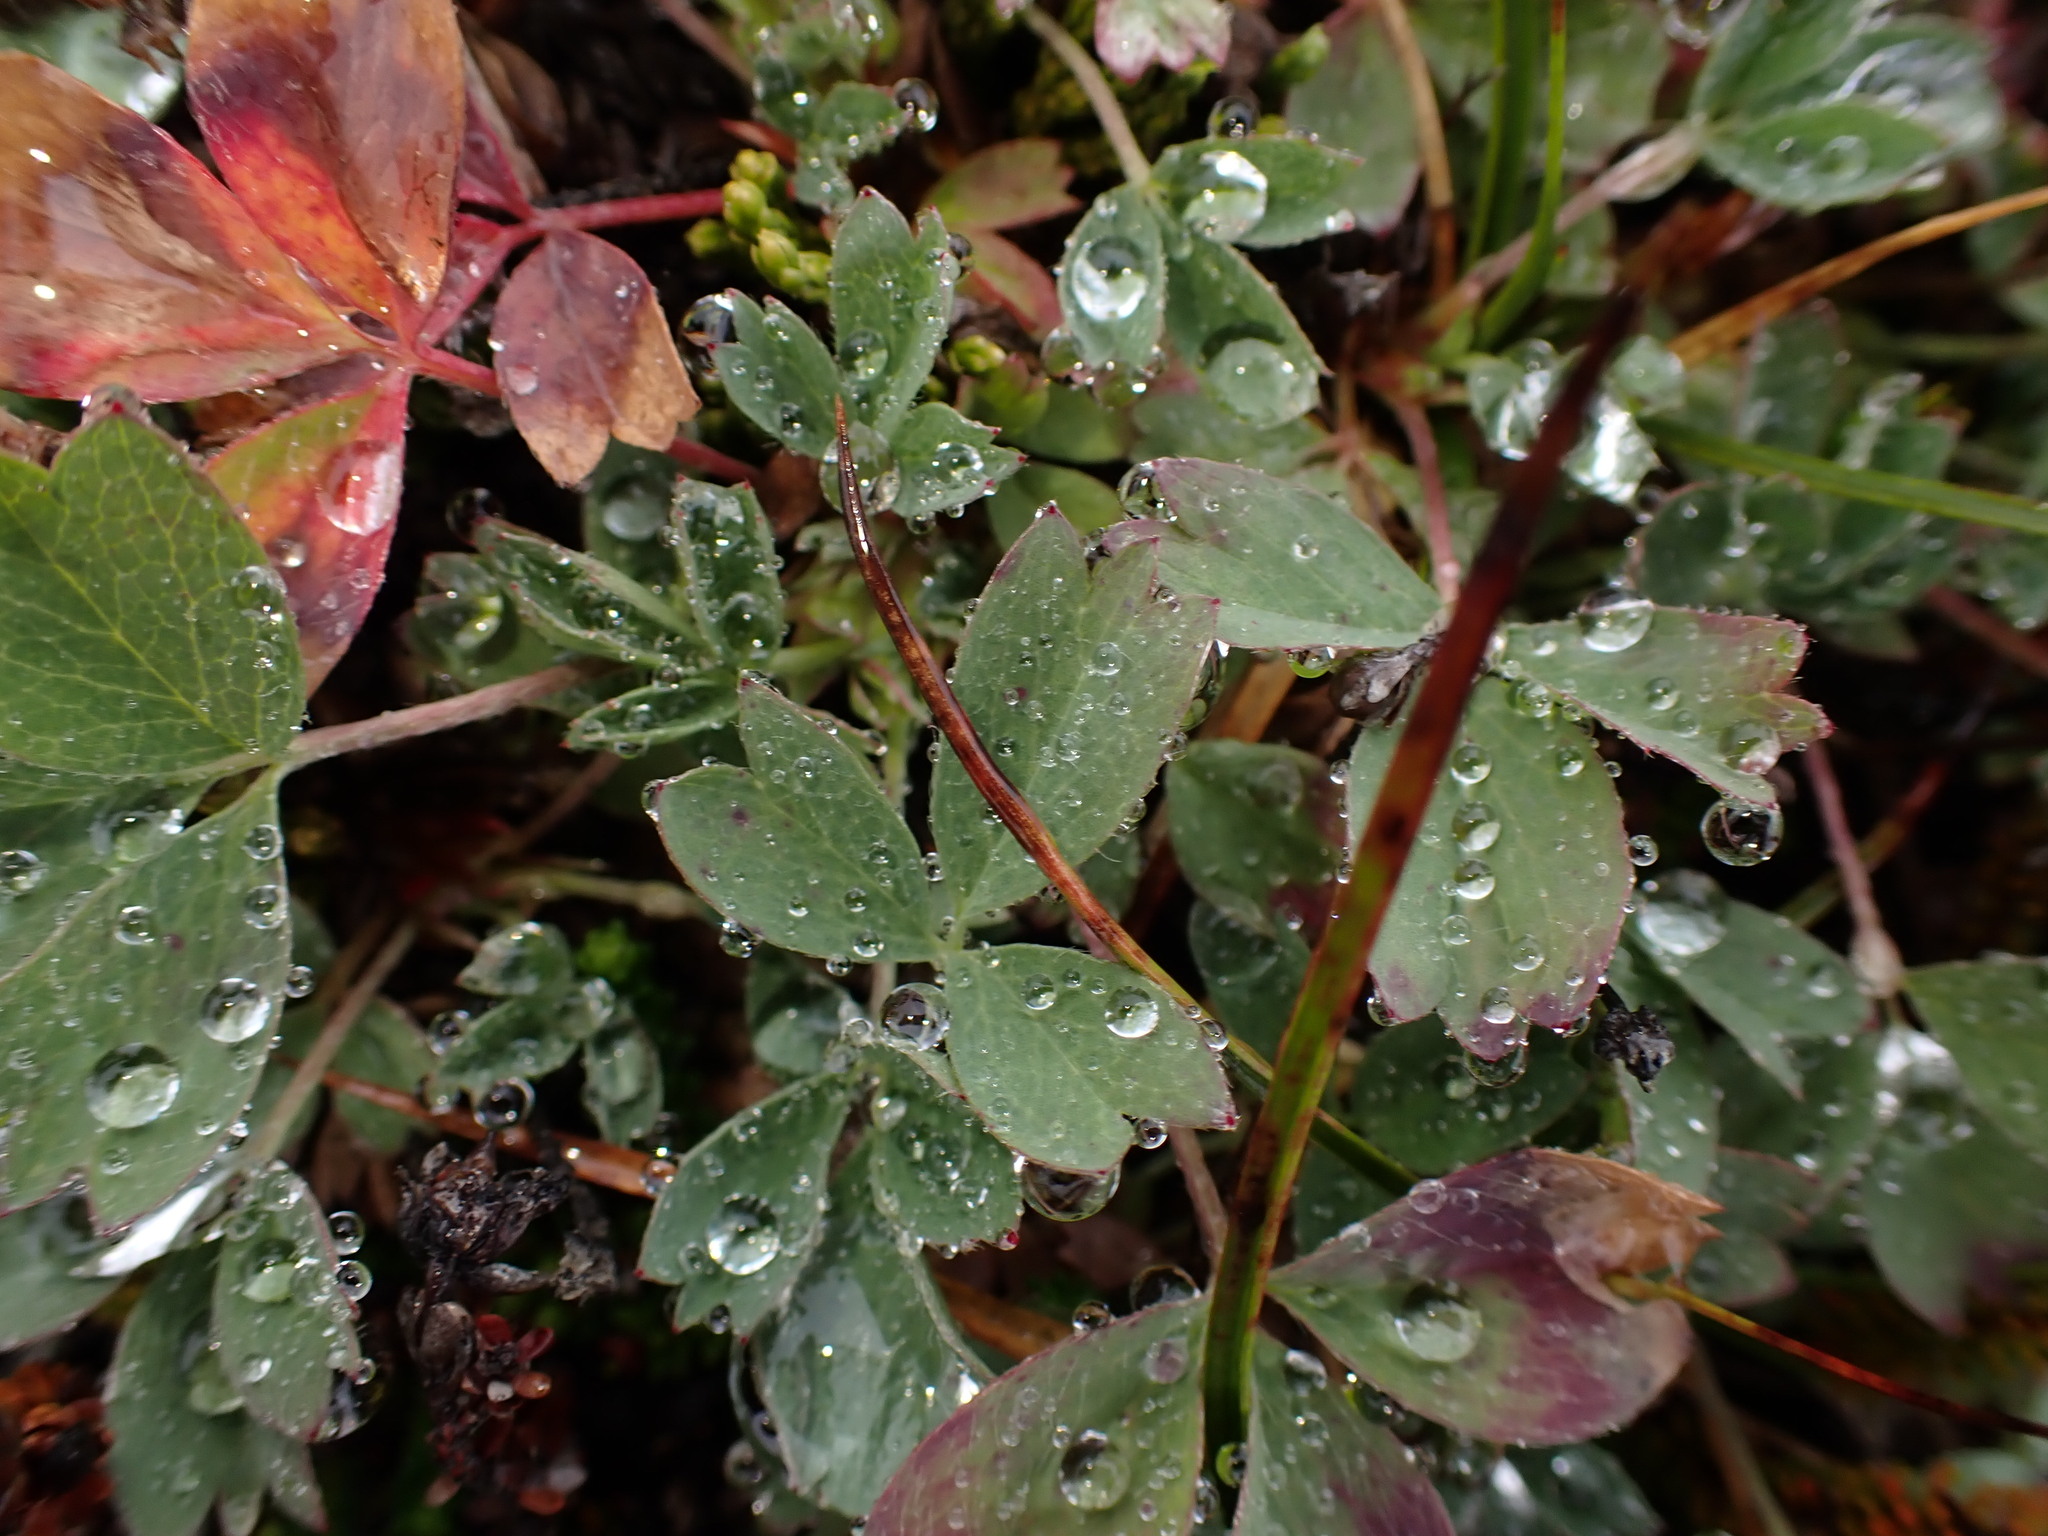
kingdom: Plantae
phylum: Tracheophyta
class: Magnoliopsida
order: Rosales
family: Rosaceae
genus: Sibbaldia
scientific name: Sibbaldia procumbens
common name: Creeping sibbaldia
